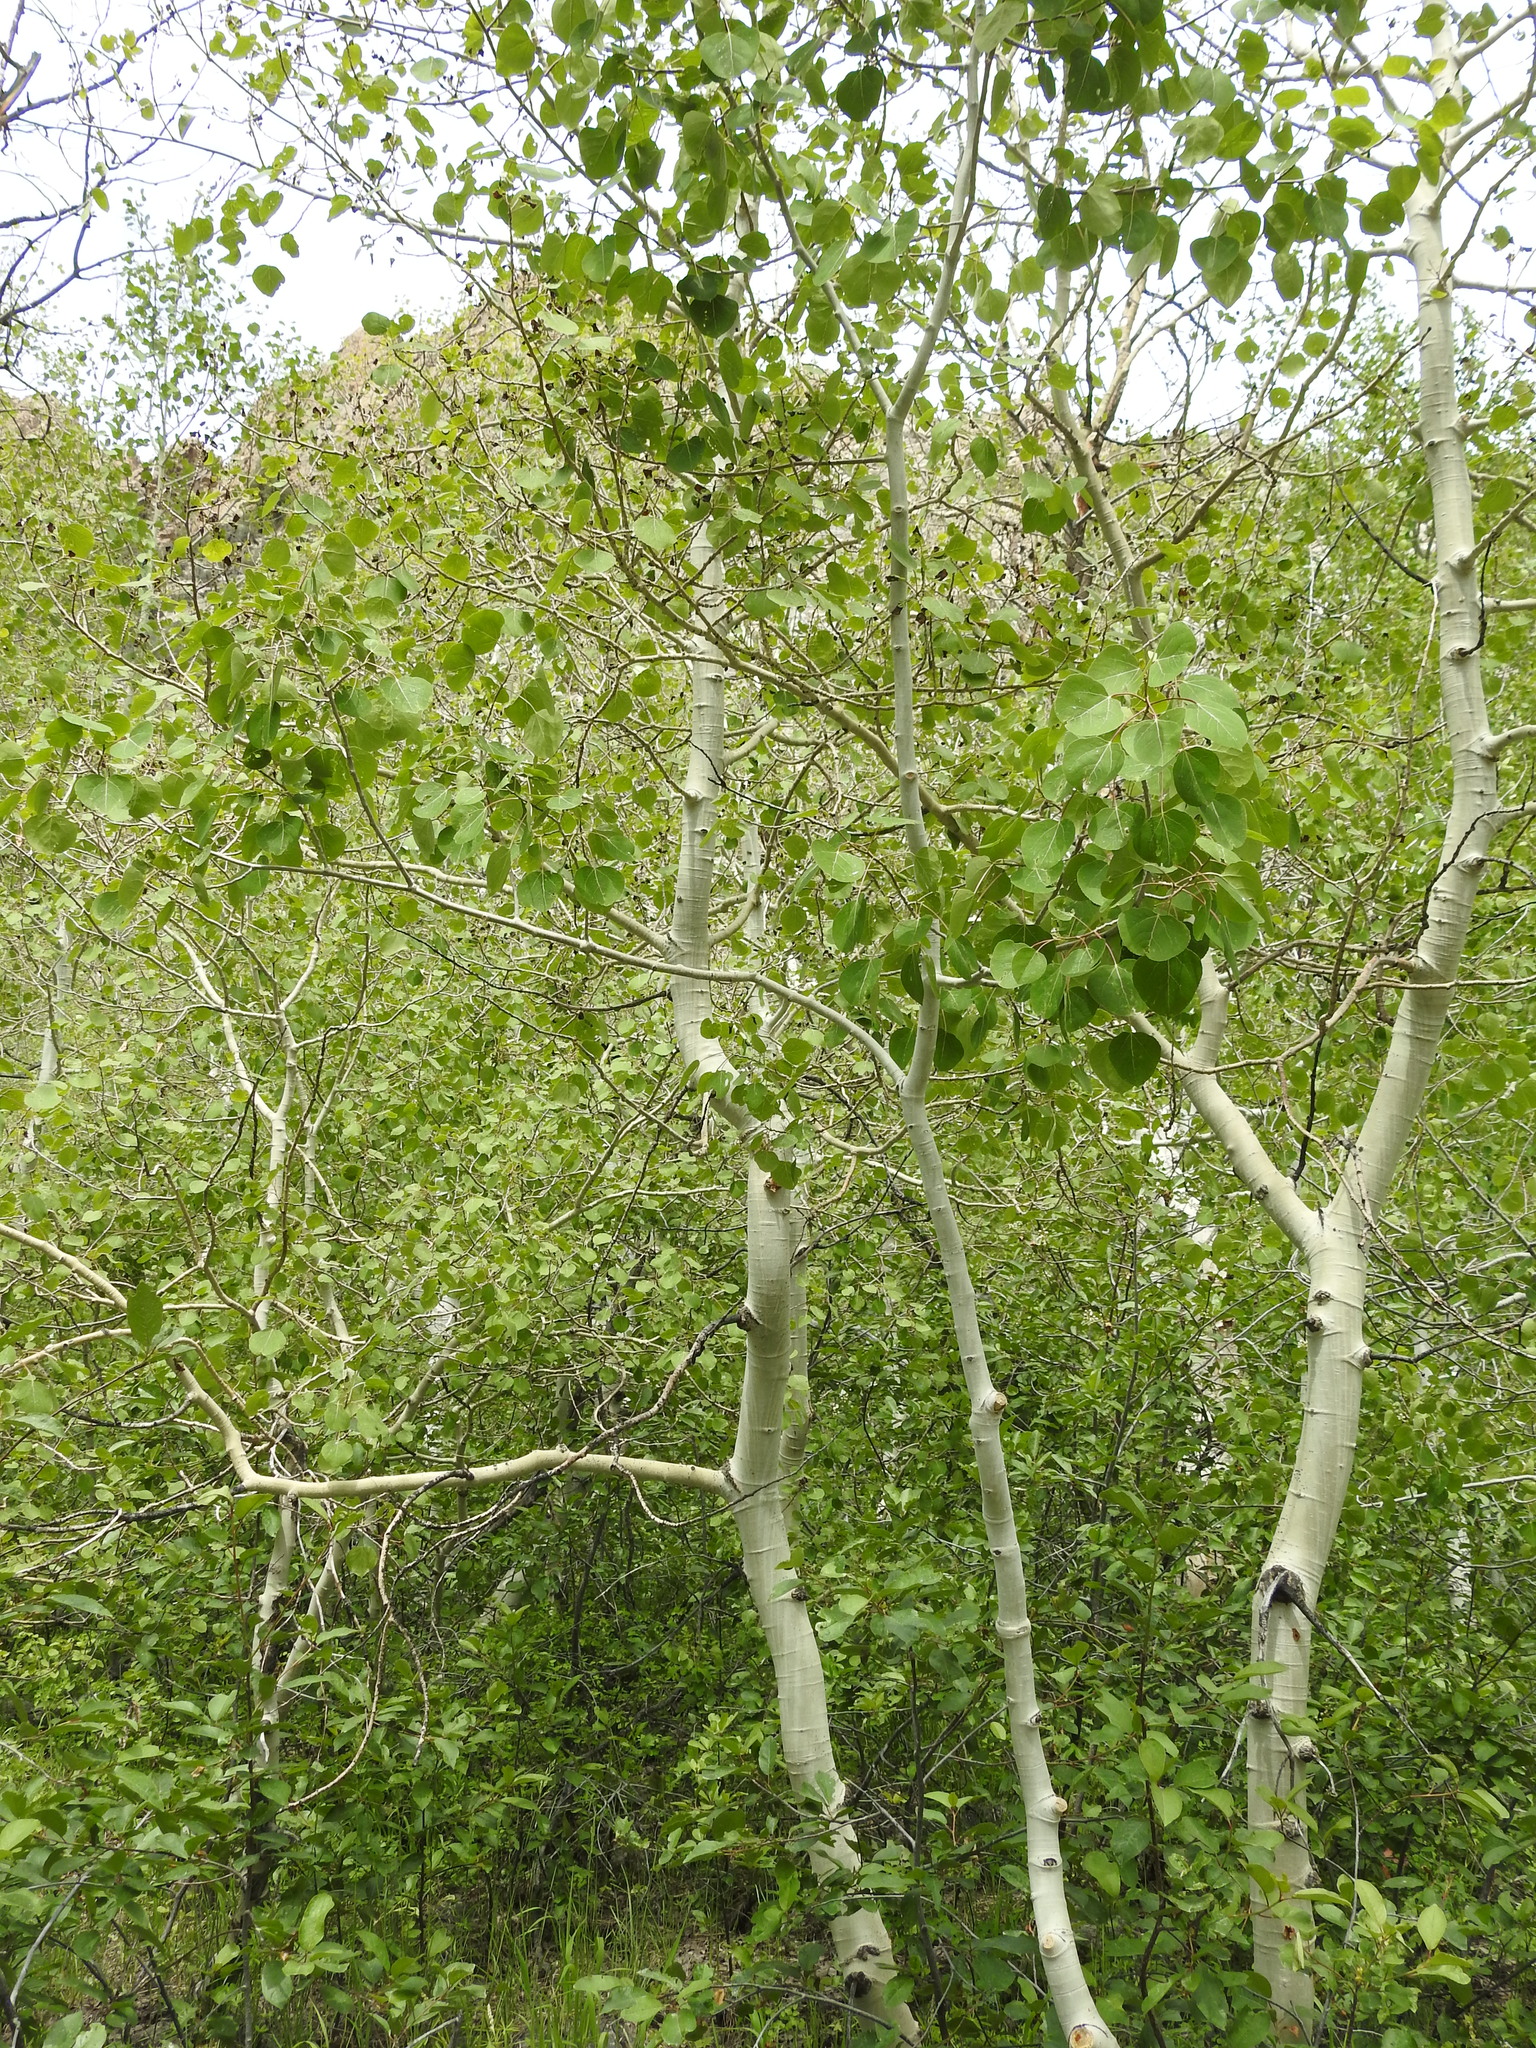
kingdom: Plantae
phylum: Tracheophyta
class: Magnoliopsida
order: Malpighiales
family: Salicaceae
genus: Populus
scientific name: Populus tremuloides
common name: Quaking aspen
